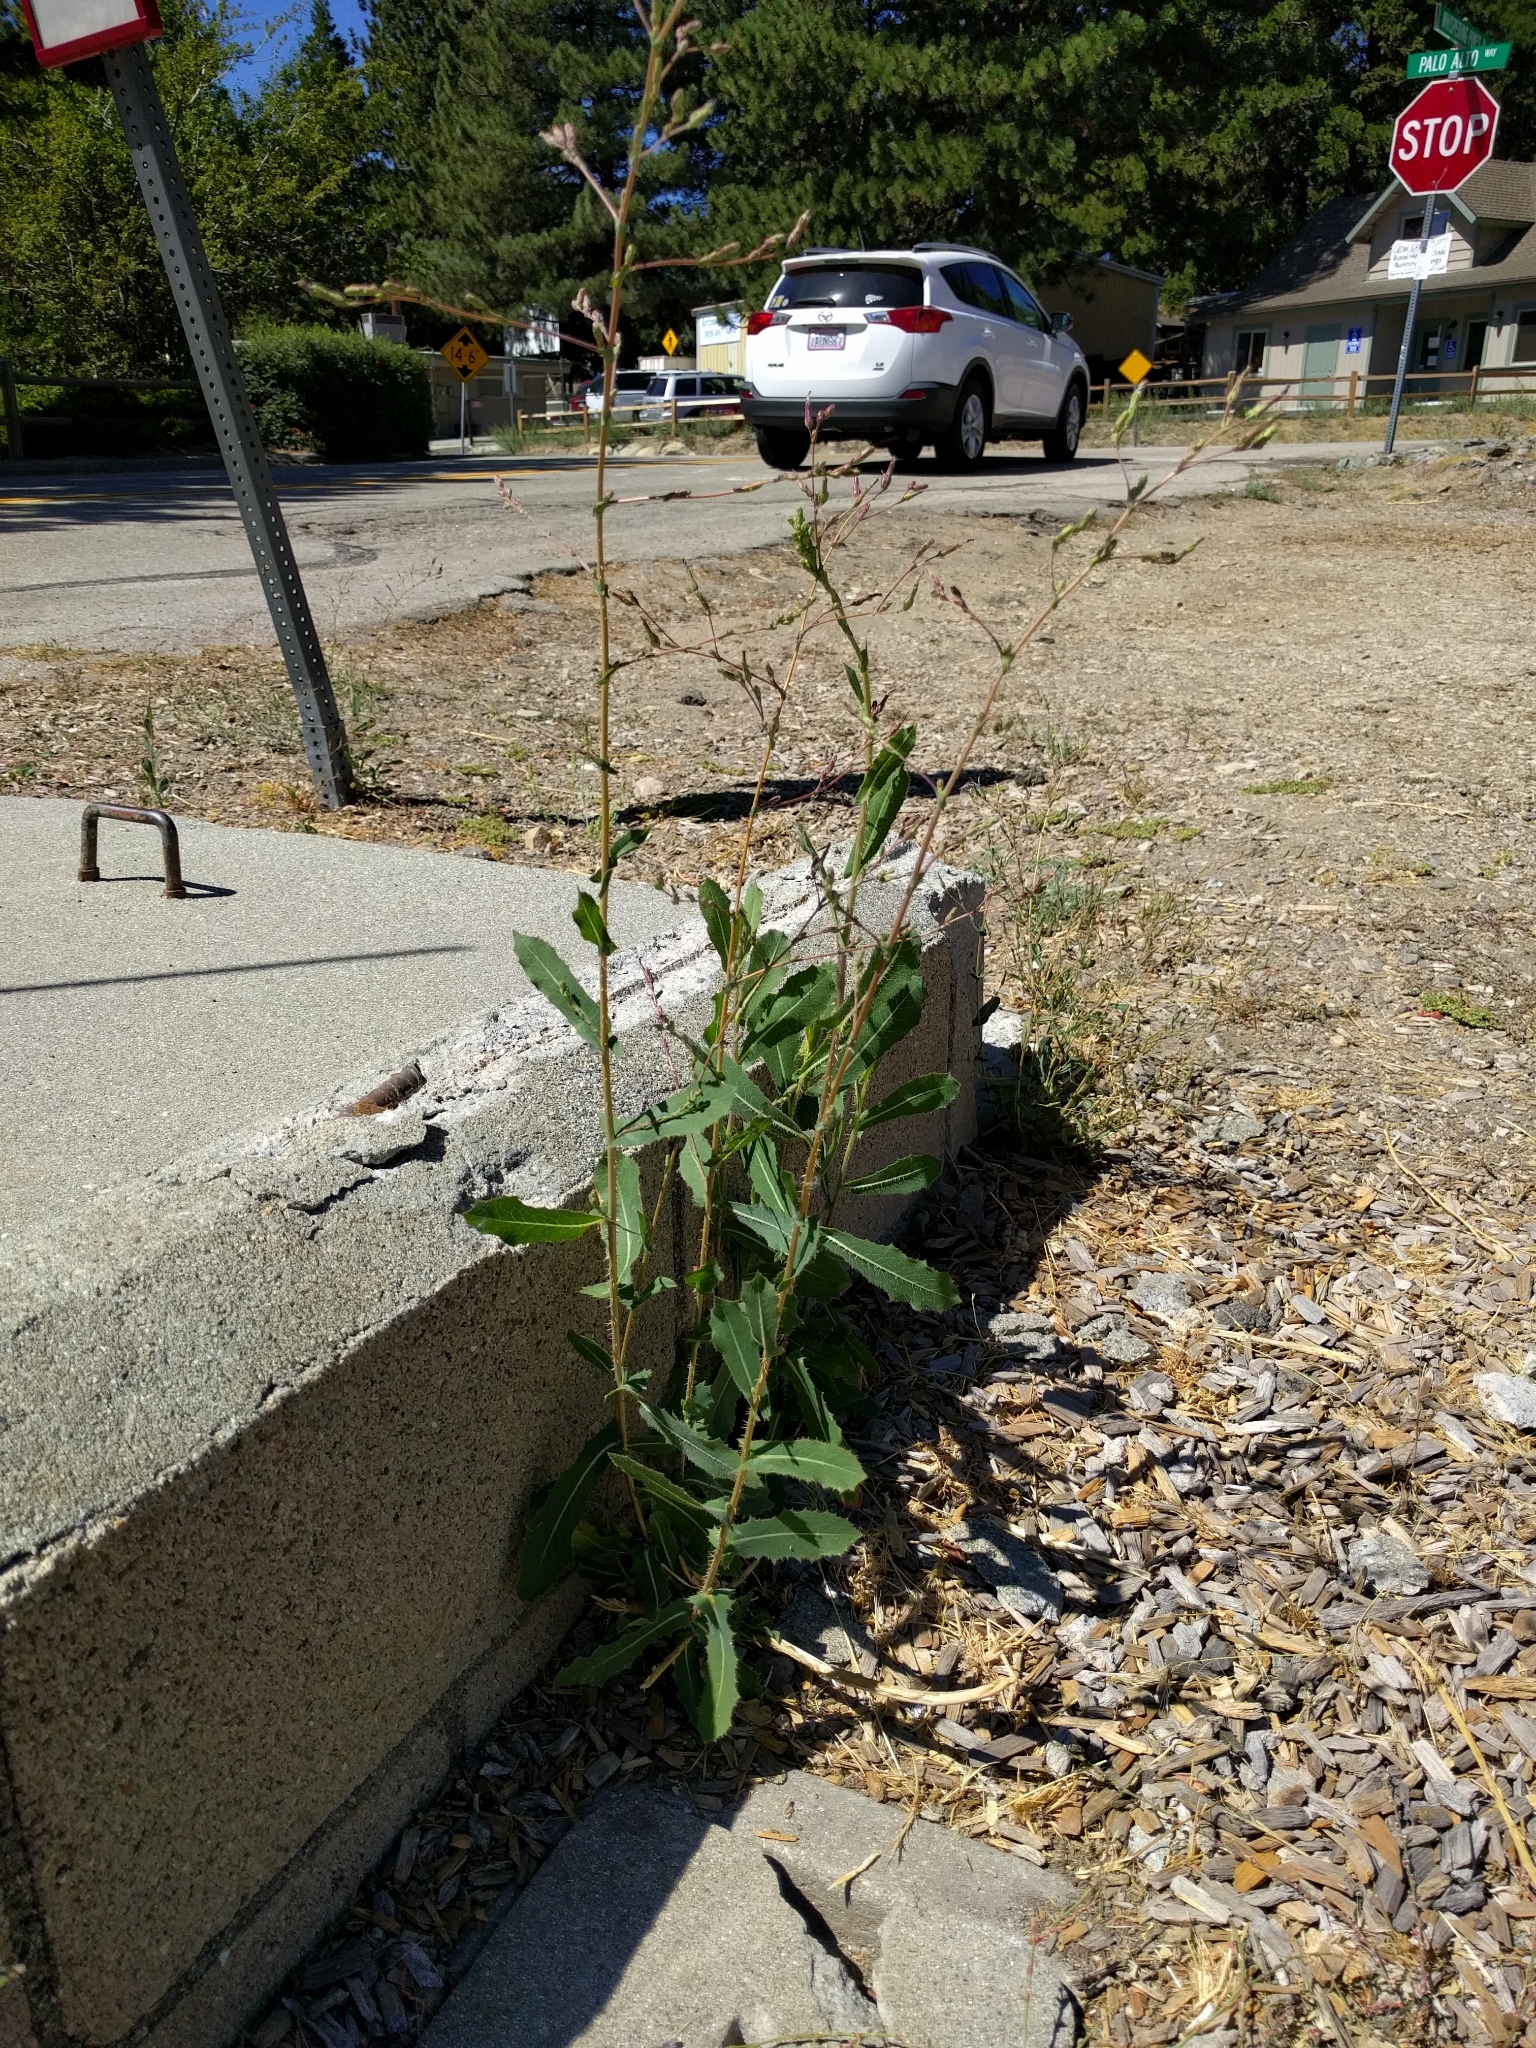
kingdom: Plantae
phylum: Tracheophyta
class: Magnoliopsida
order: Asterales
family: Asteraceae
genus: Lactuca
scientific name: Lactuca serriola
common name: Prickly lettuce
